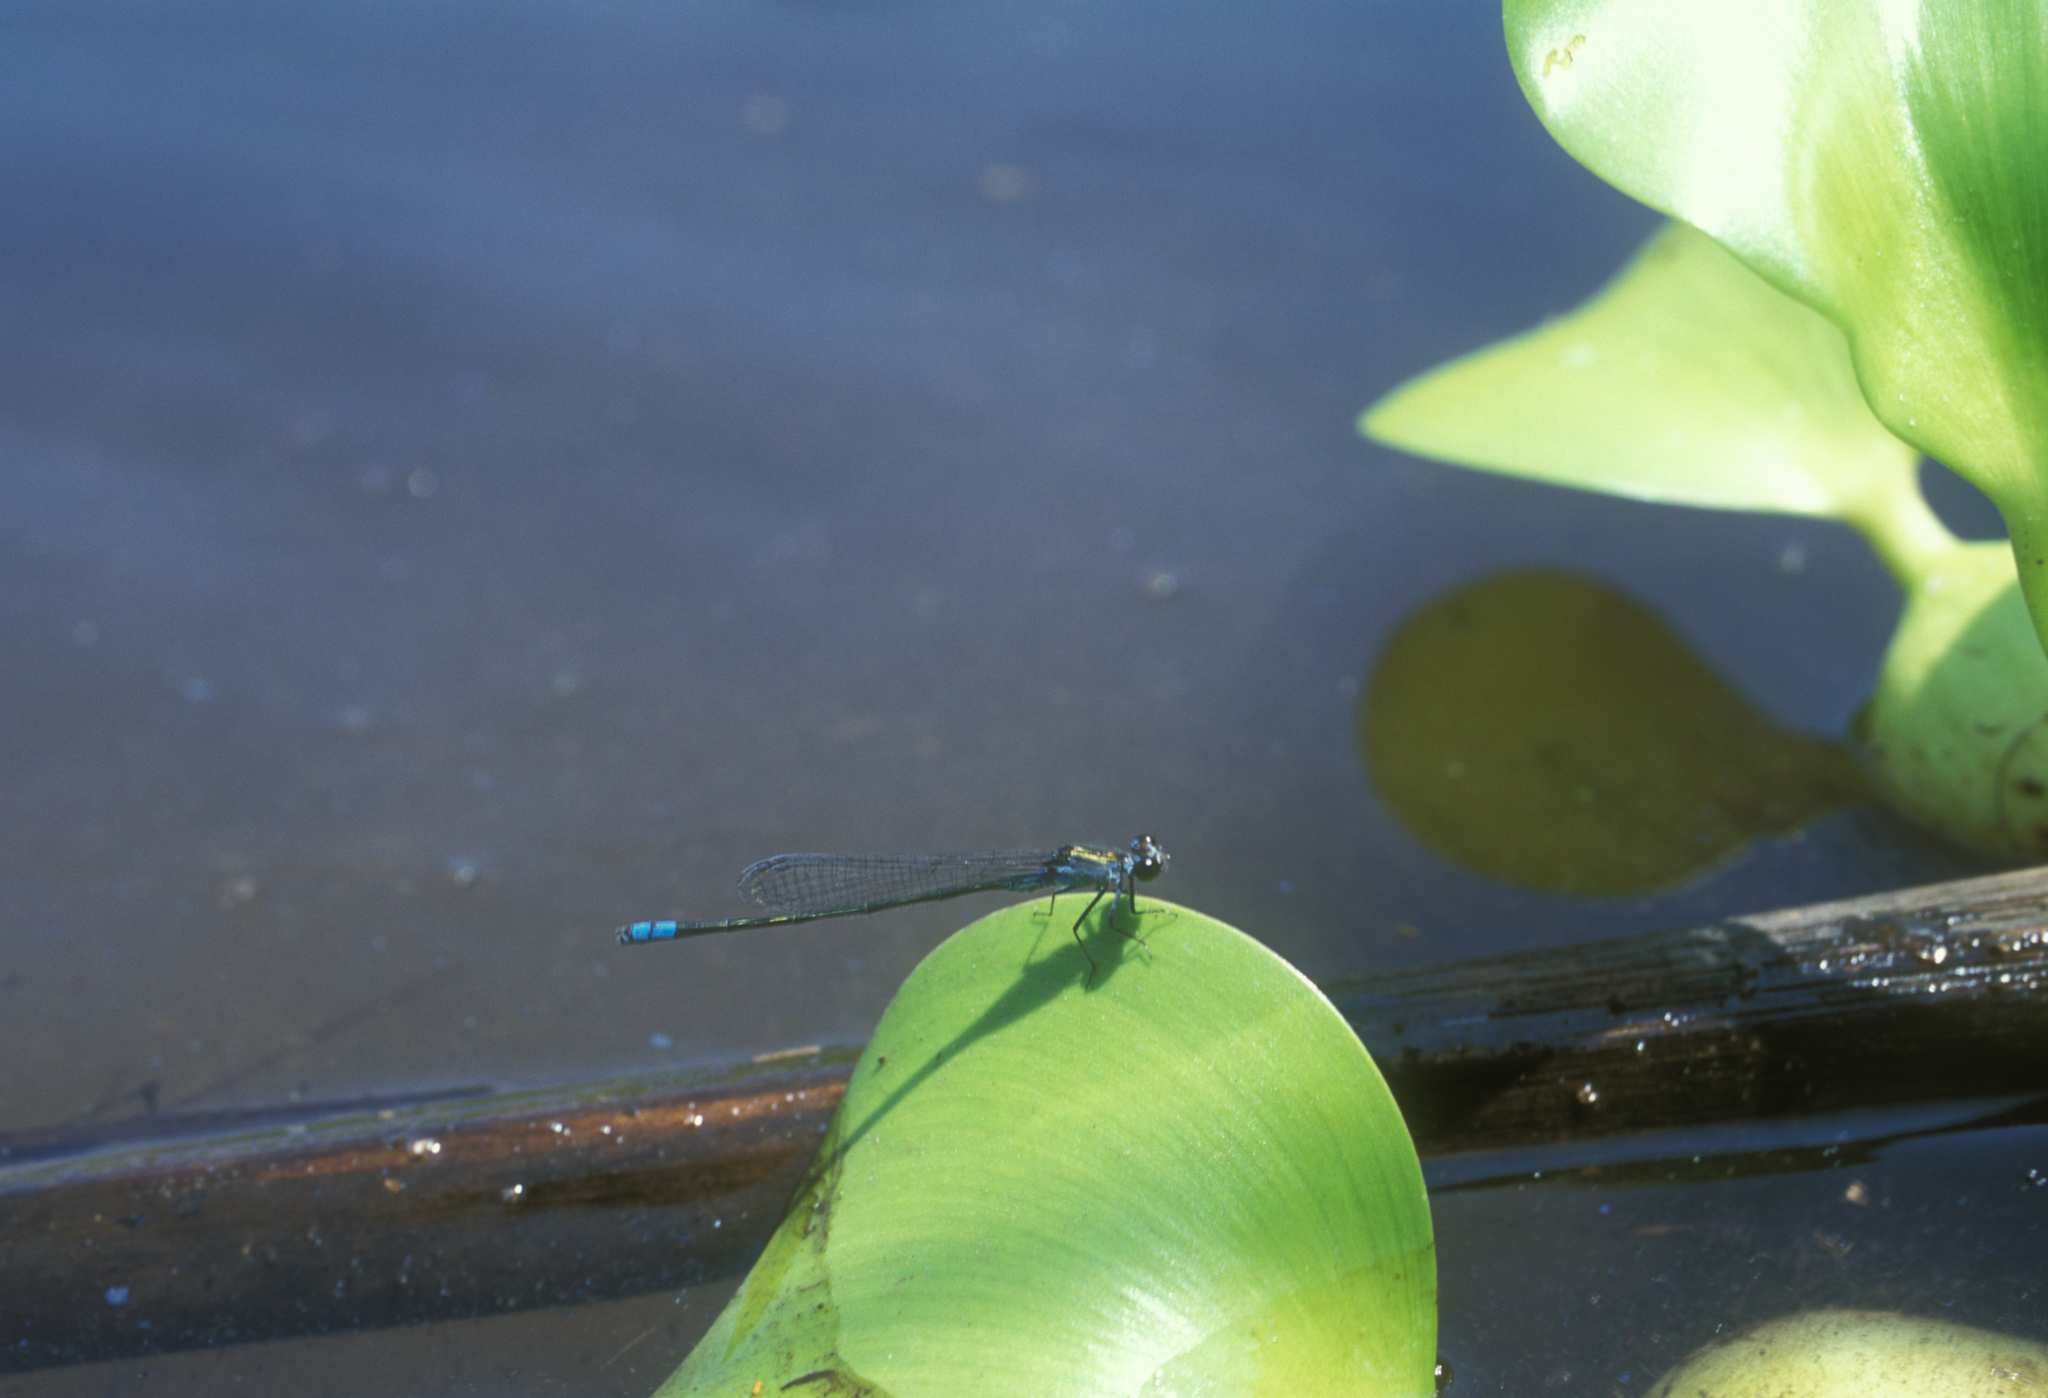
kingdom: Animalia
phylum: Arthropoda
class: Insecta
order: Odonata
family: Coenagrionidae
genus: Paracercion
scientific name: Paracercion calamorum
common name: Dusky lilysquatter
